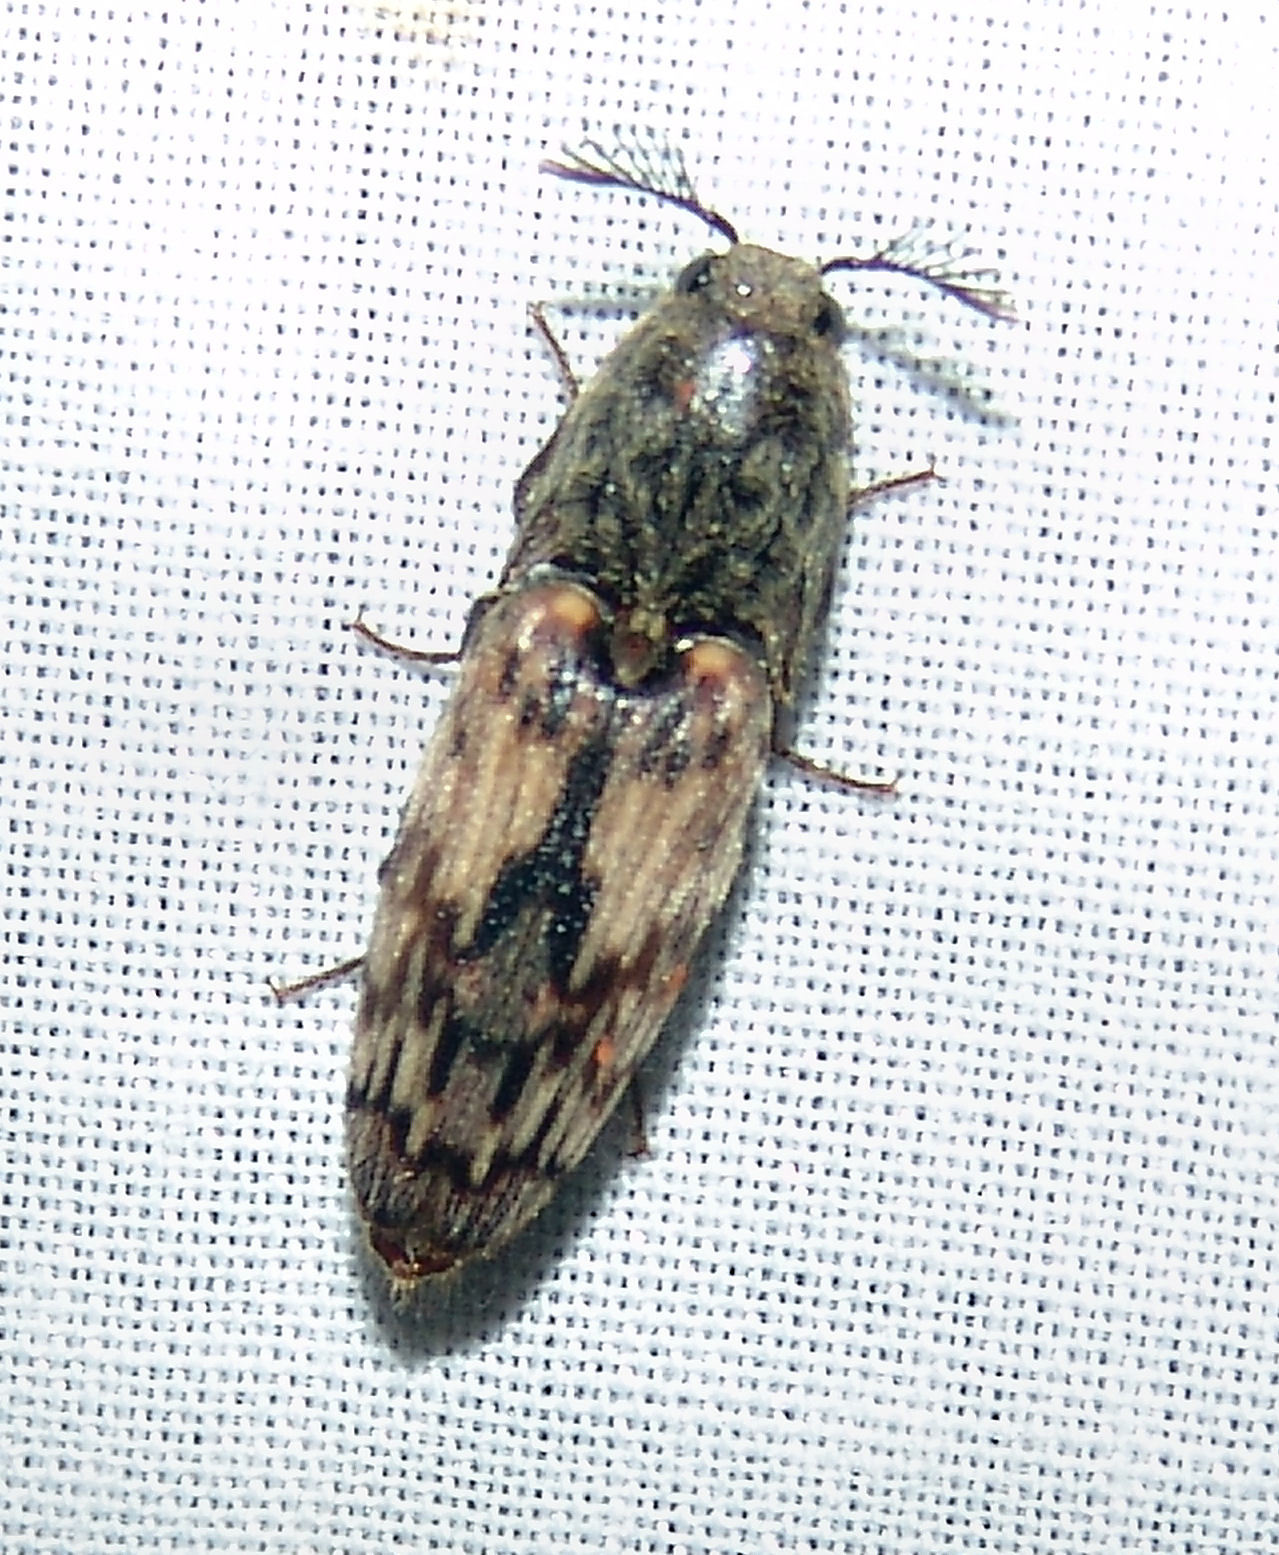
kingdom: Animalia
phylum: Arthropoda
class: Insecta
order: Coleoptera
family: Elateridae
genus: Pherhimius
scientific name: Pherhimius fascicularis
